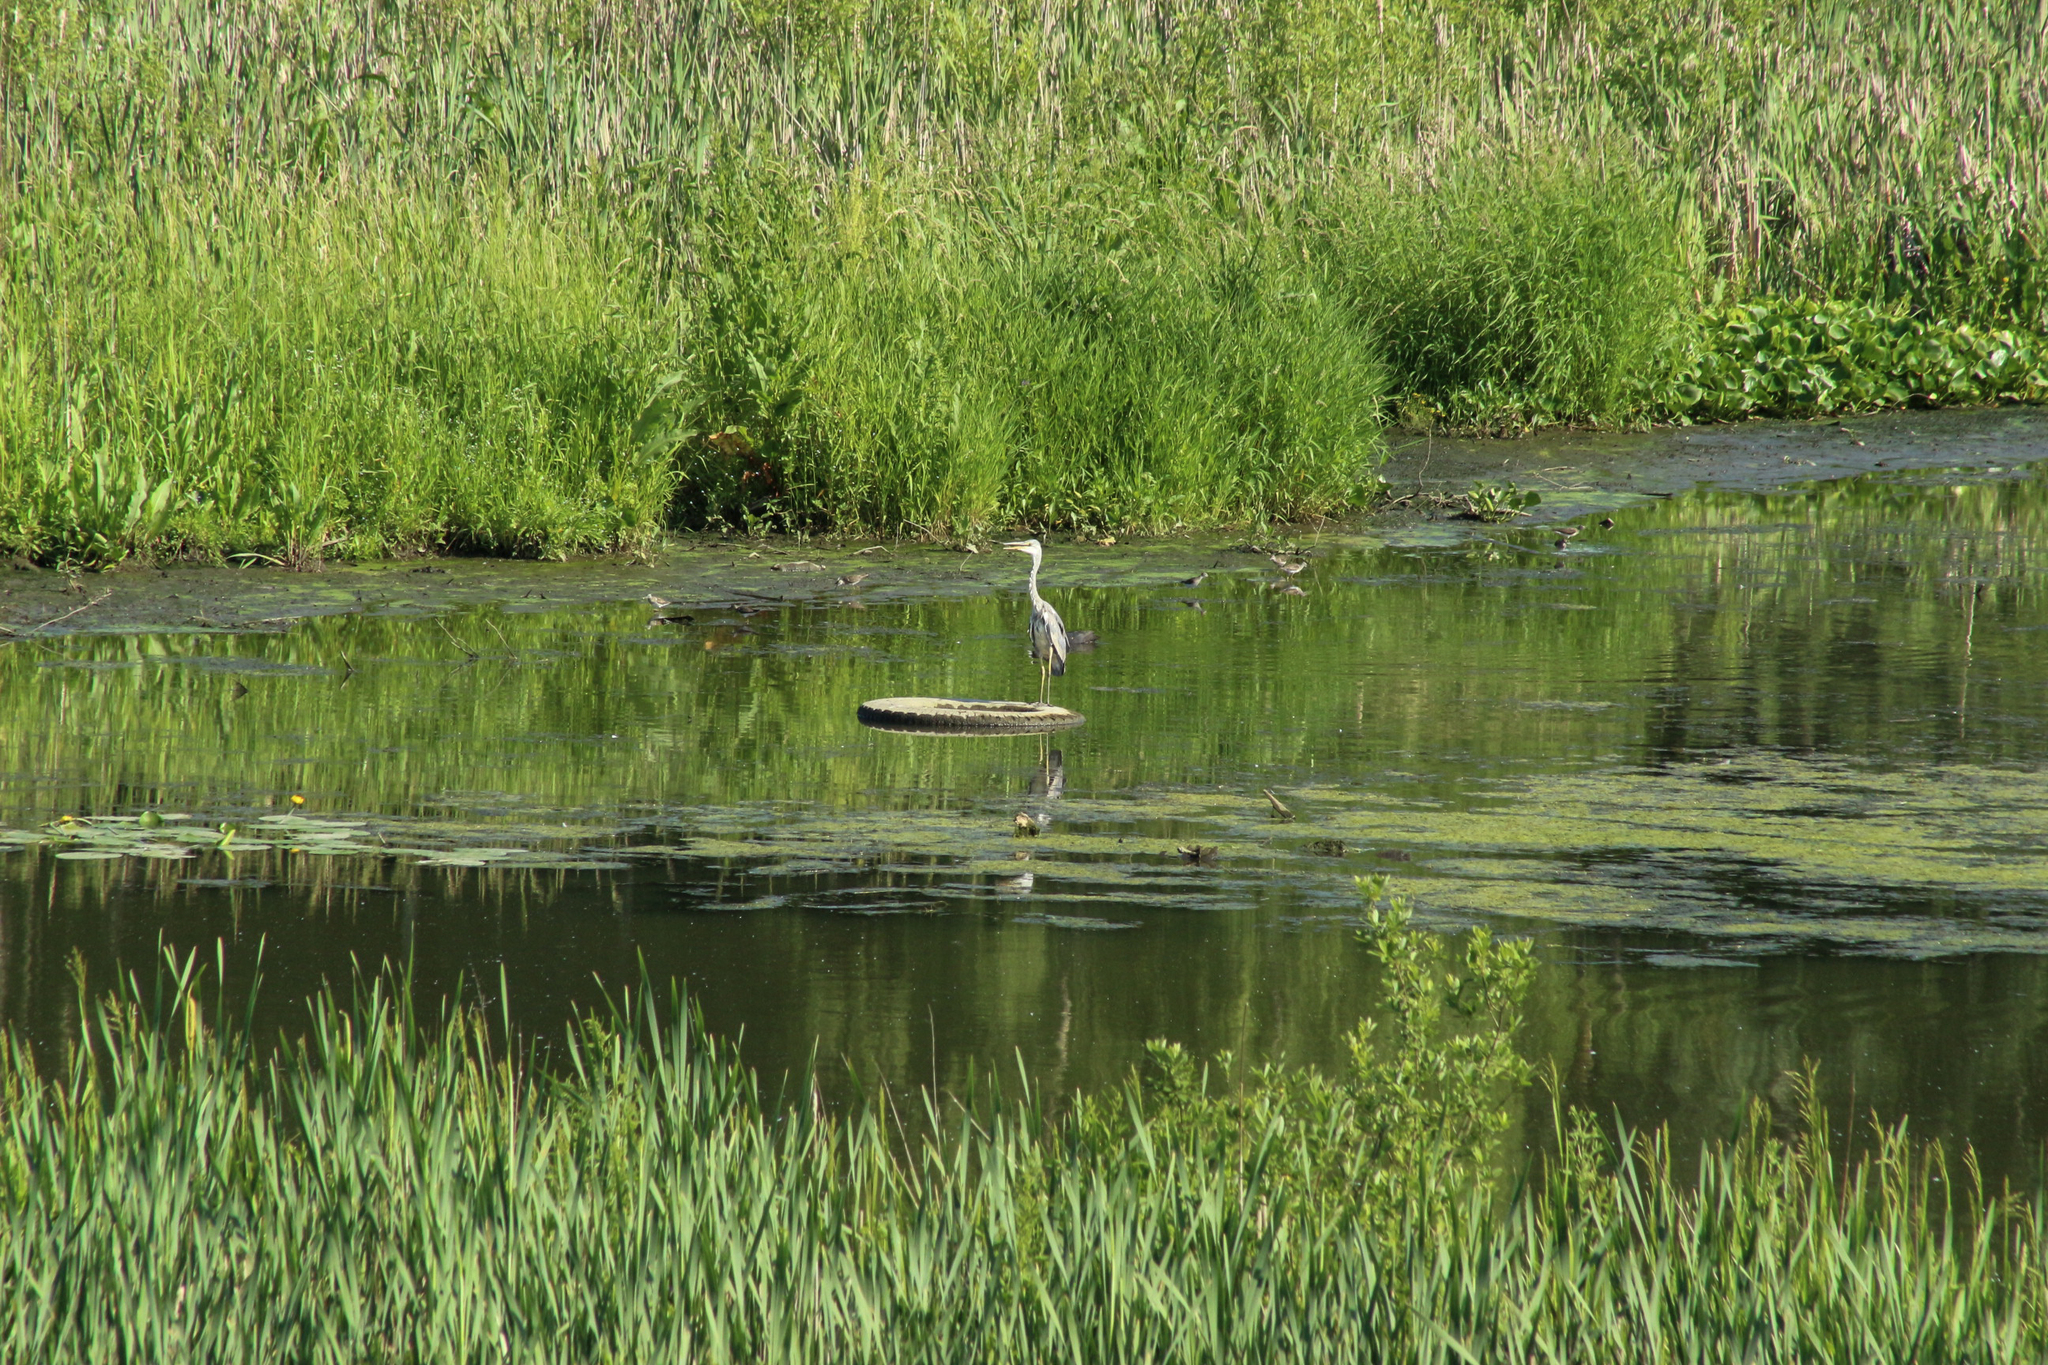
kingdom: Animalia
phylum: Chordata
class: Aves
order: Pelecaniformes
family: Ardeidae
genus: Ardea
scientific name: Ardea cinerea
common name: Grey heron
